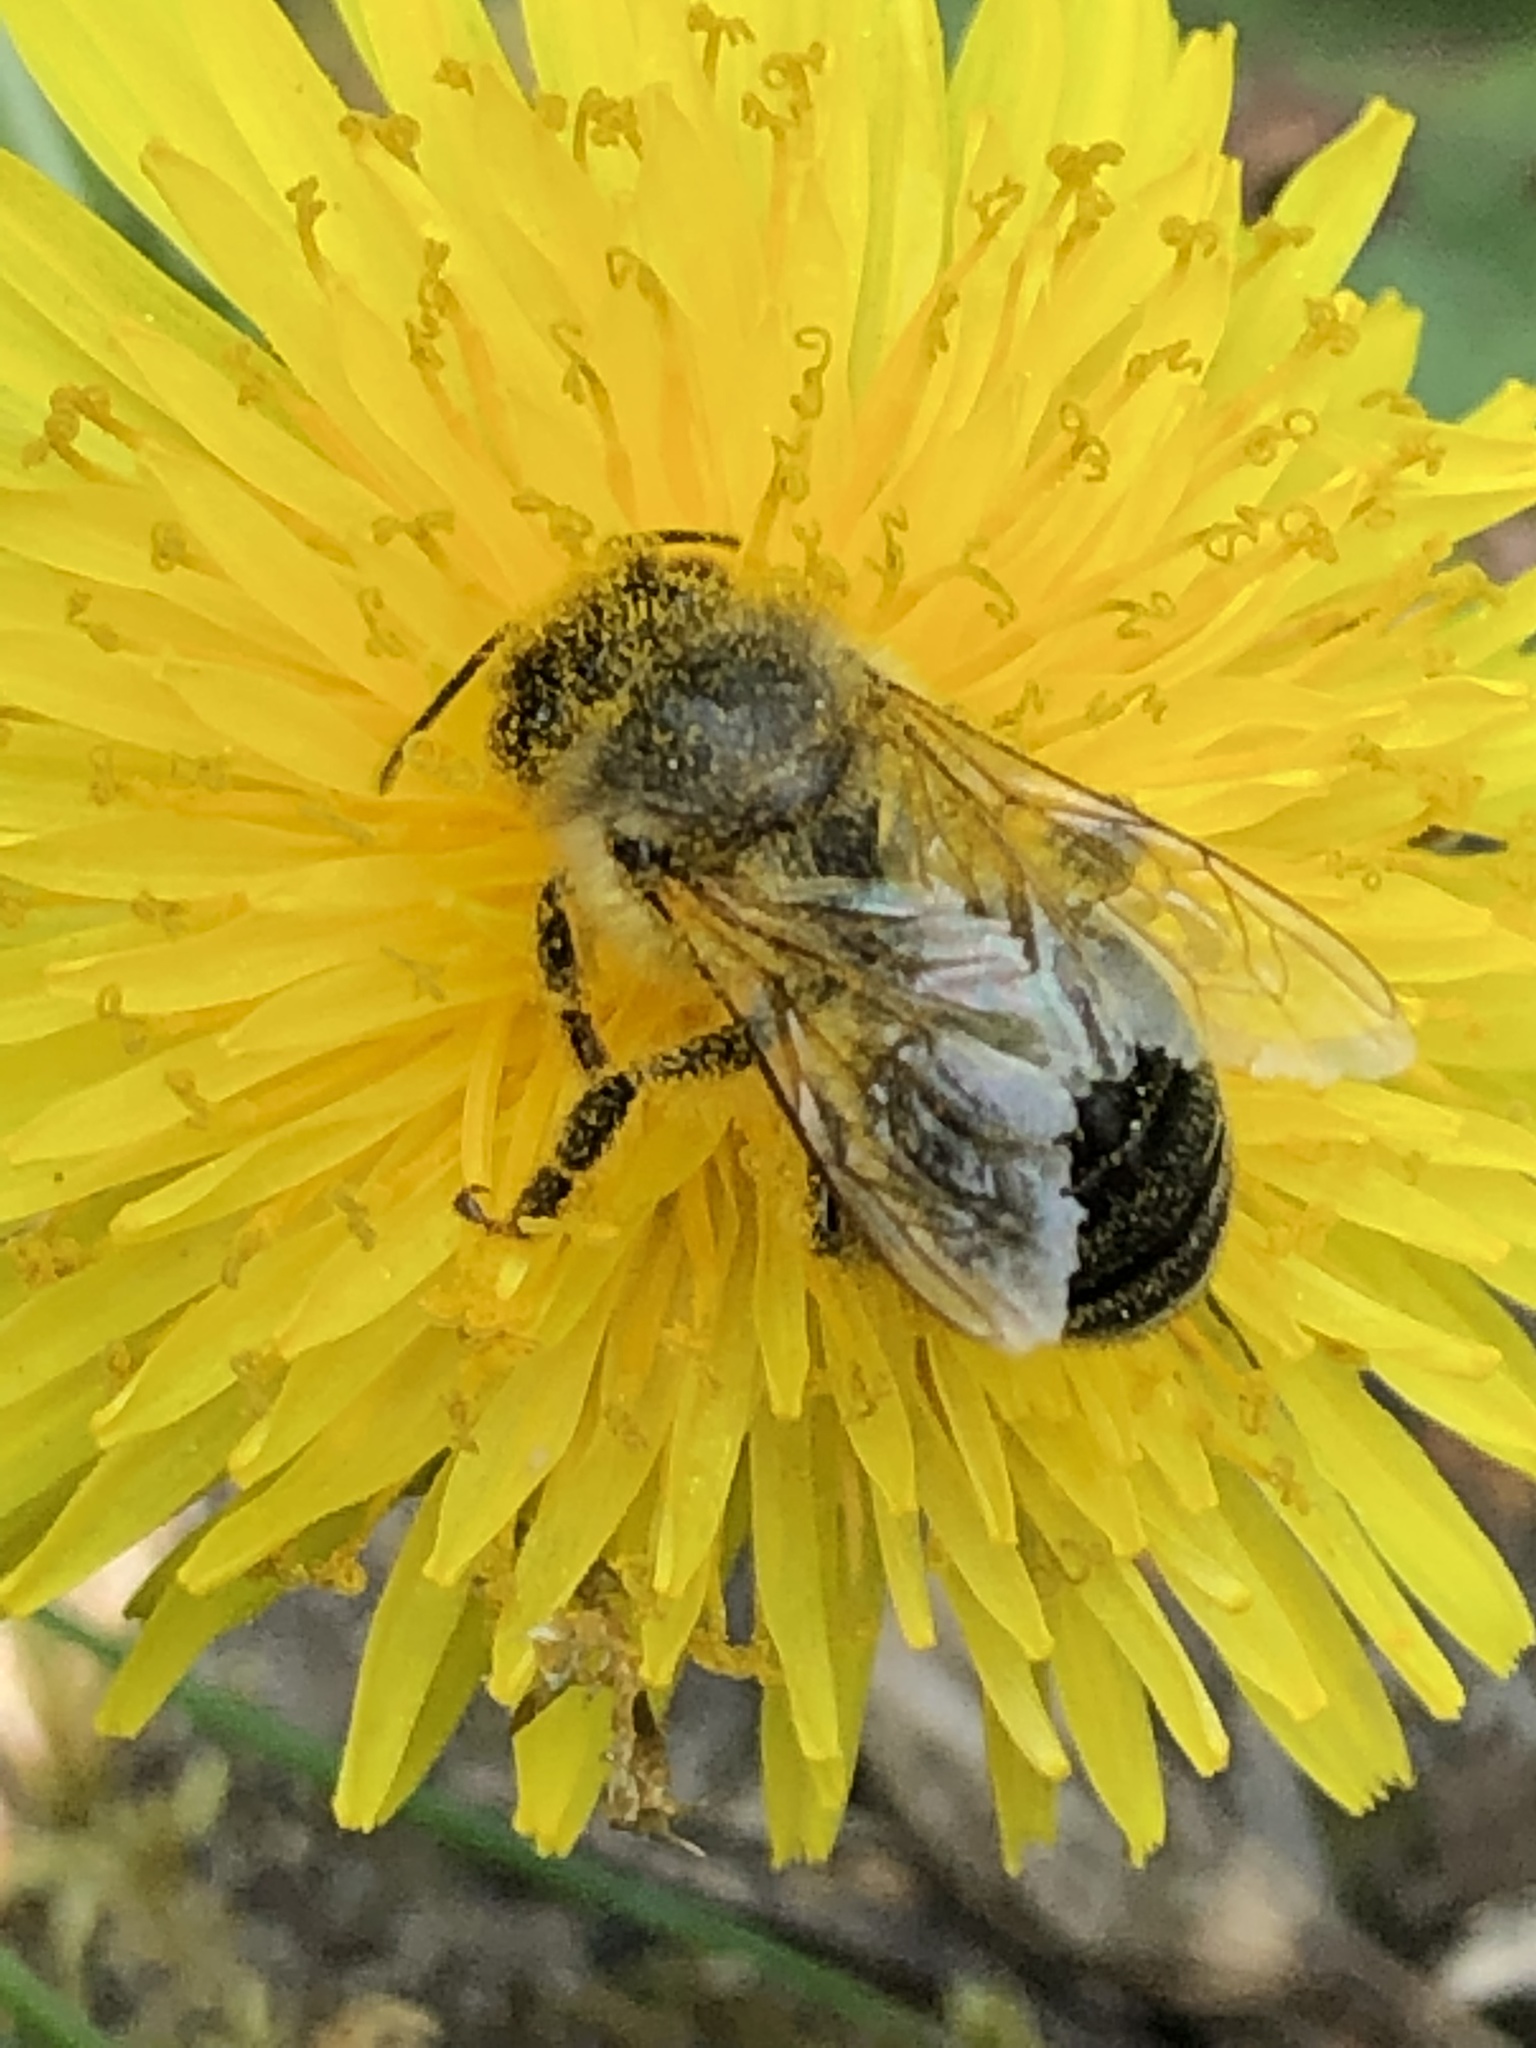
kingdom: Animalia
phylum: Arthropoda
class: Insecta
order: Hymenoptera
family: Apidae
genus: Apis
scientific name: Apis mellifera
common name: Honey bee
